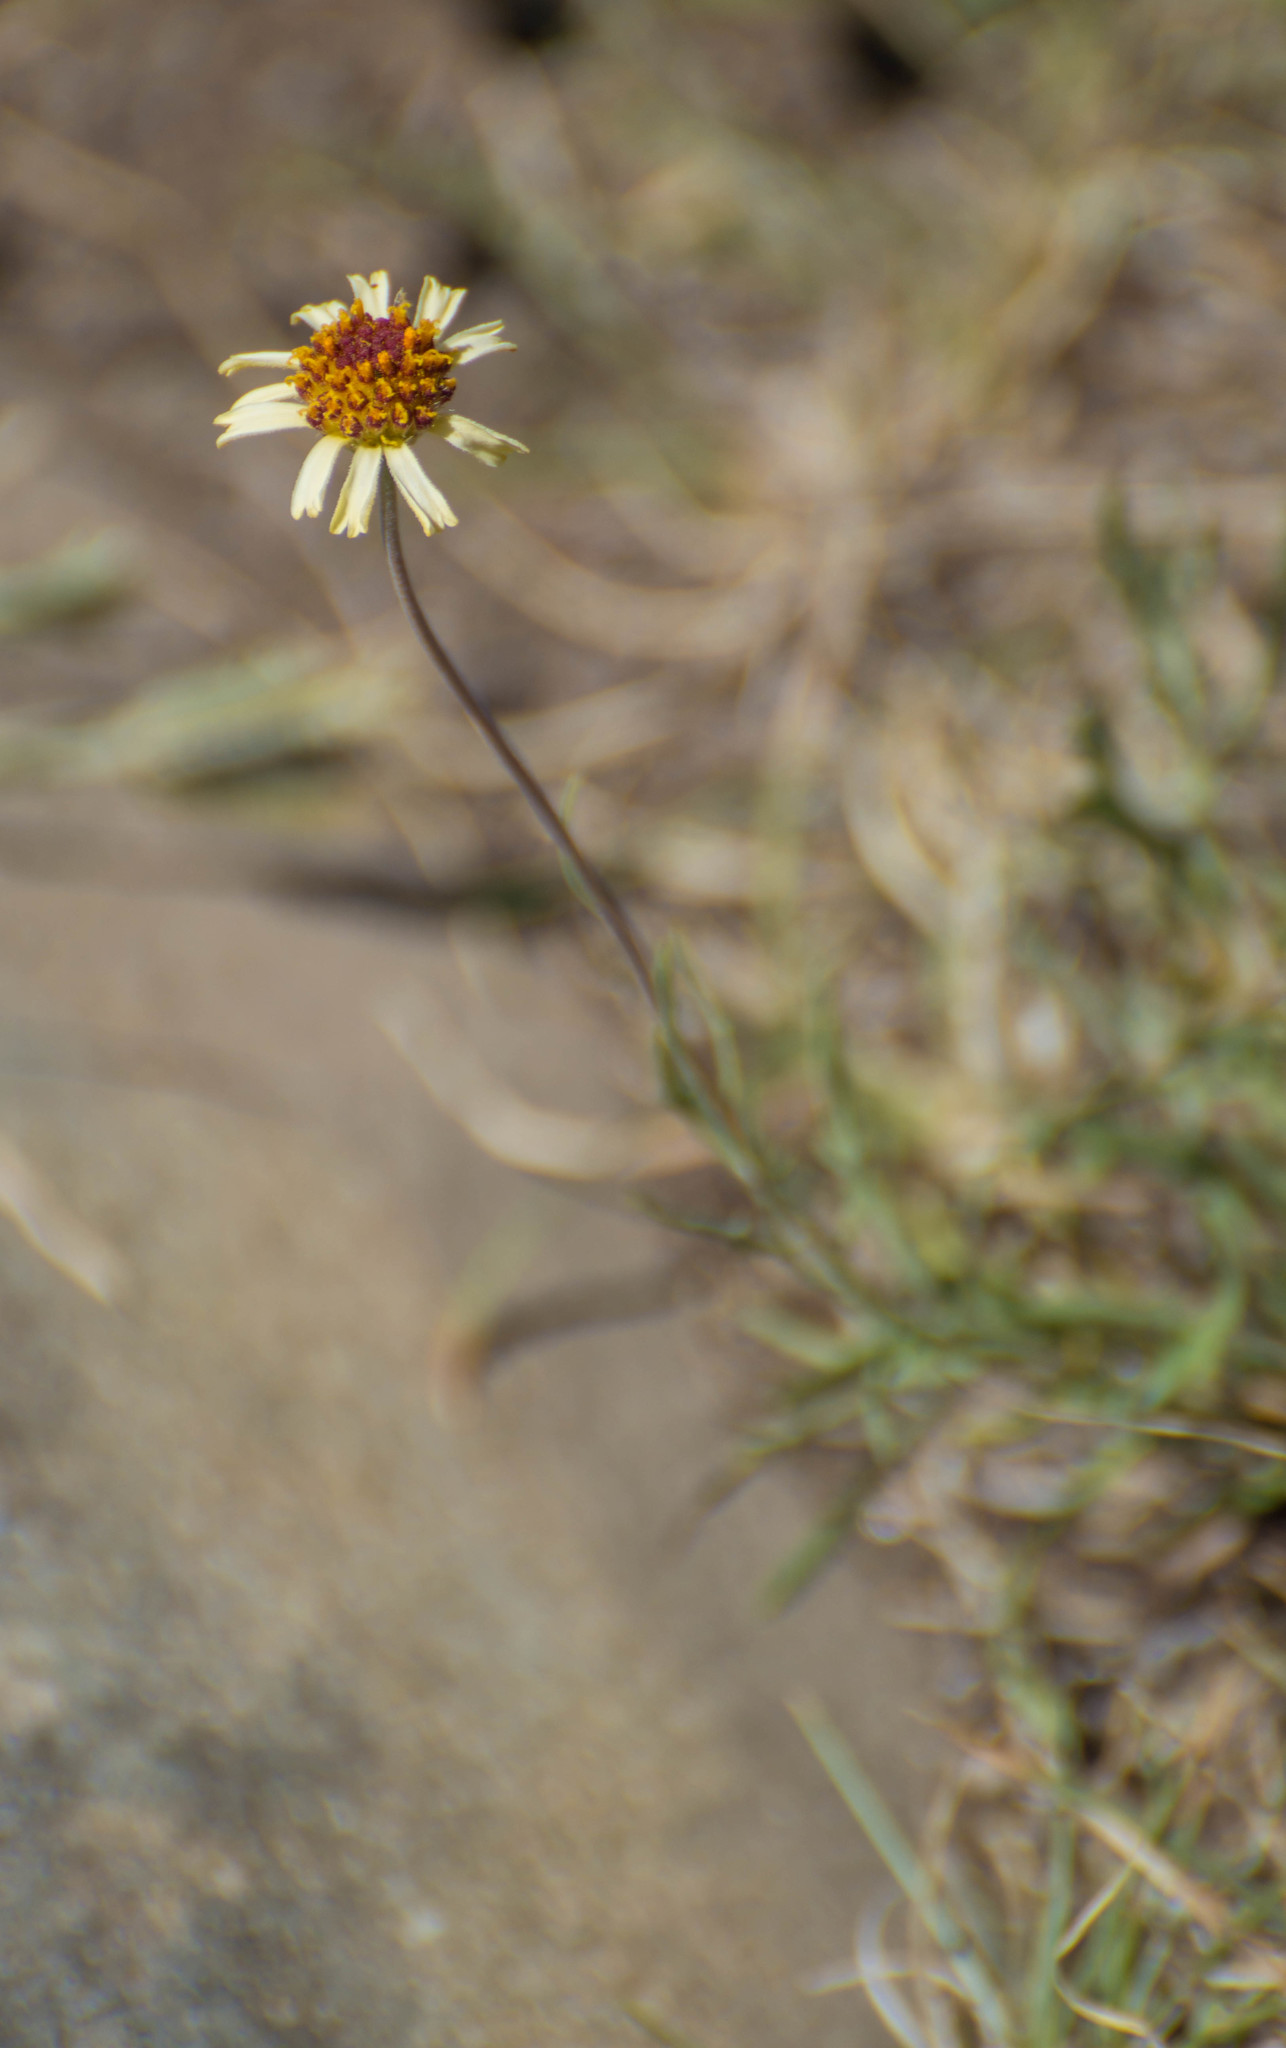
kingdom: Plantae
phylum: Tracheophyta
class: Magnoliopsida
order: Asterales
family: Asteraceae
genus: Helenium
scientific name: Helenium uniflorum
